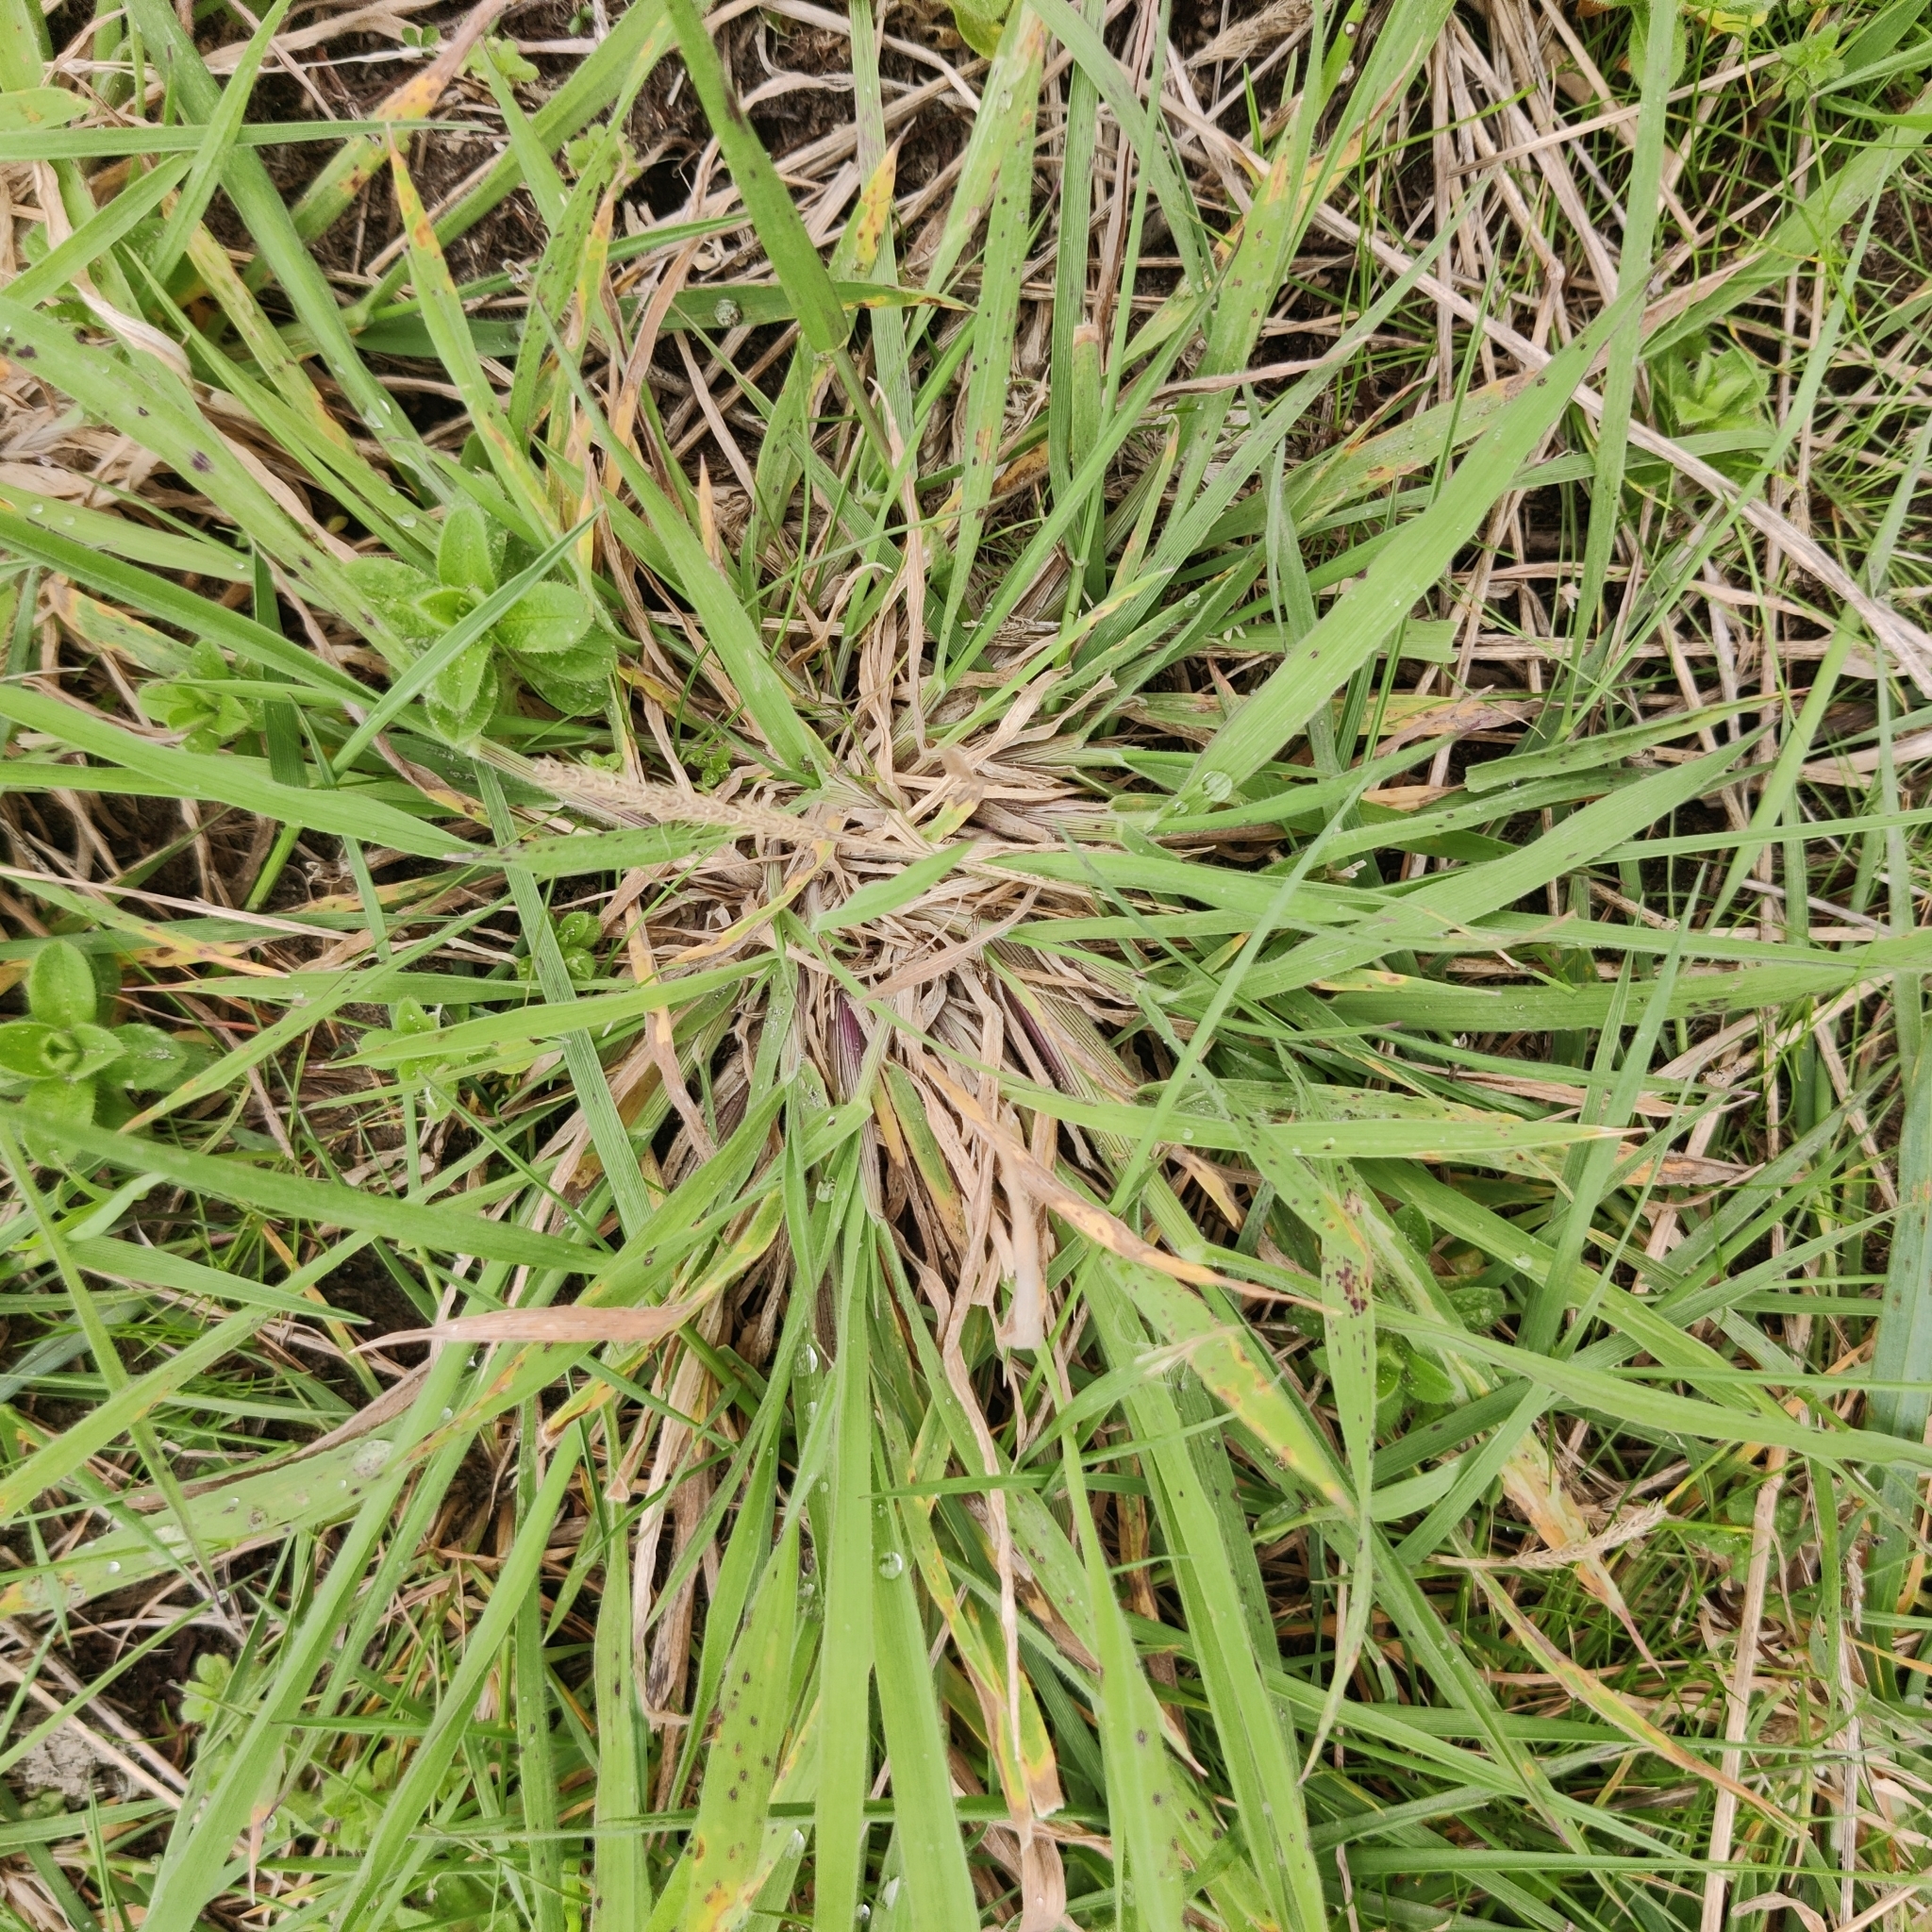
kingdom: Plantae
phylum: Tracheophyta
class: Liliopsida
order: Poales
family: Poaceae
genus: Holcus
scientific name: Holcus lanatus
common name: Yorkshire-fog
